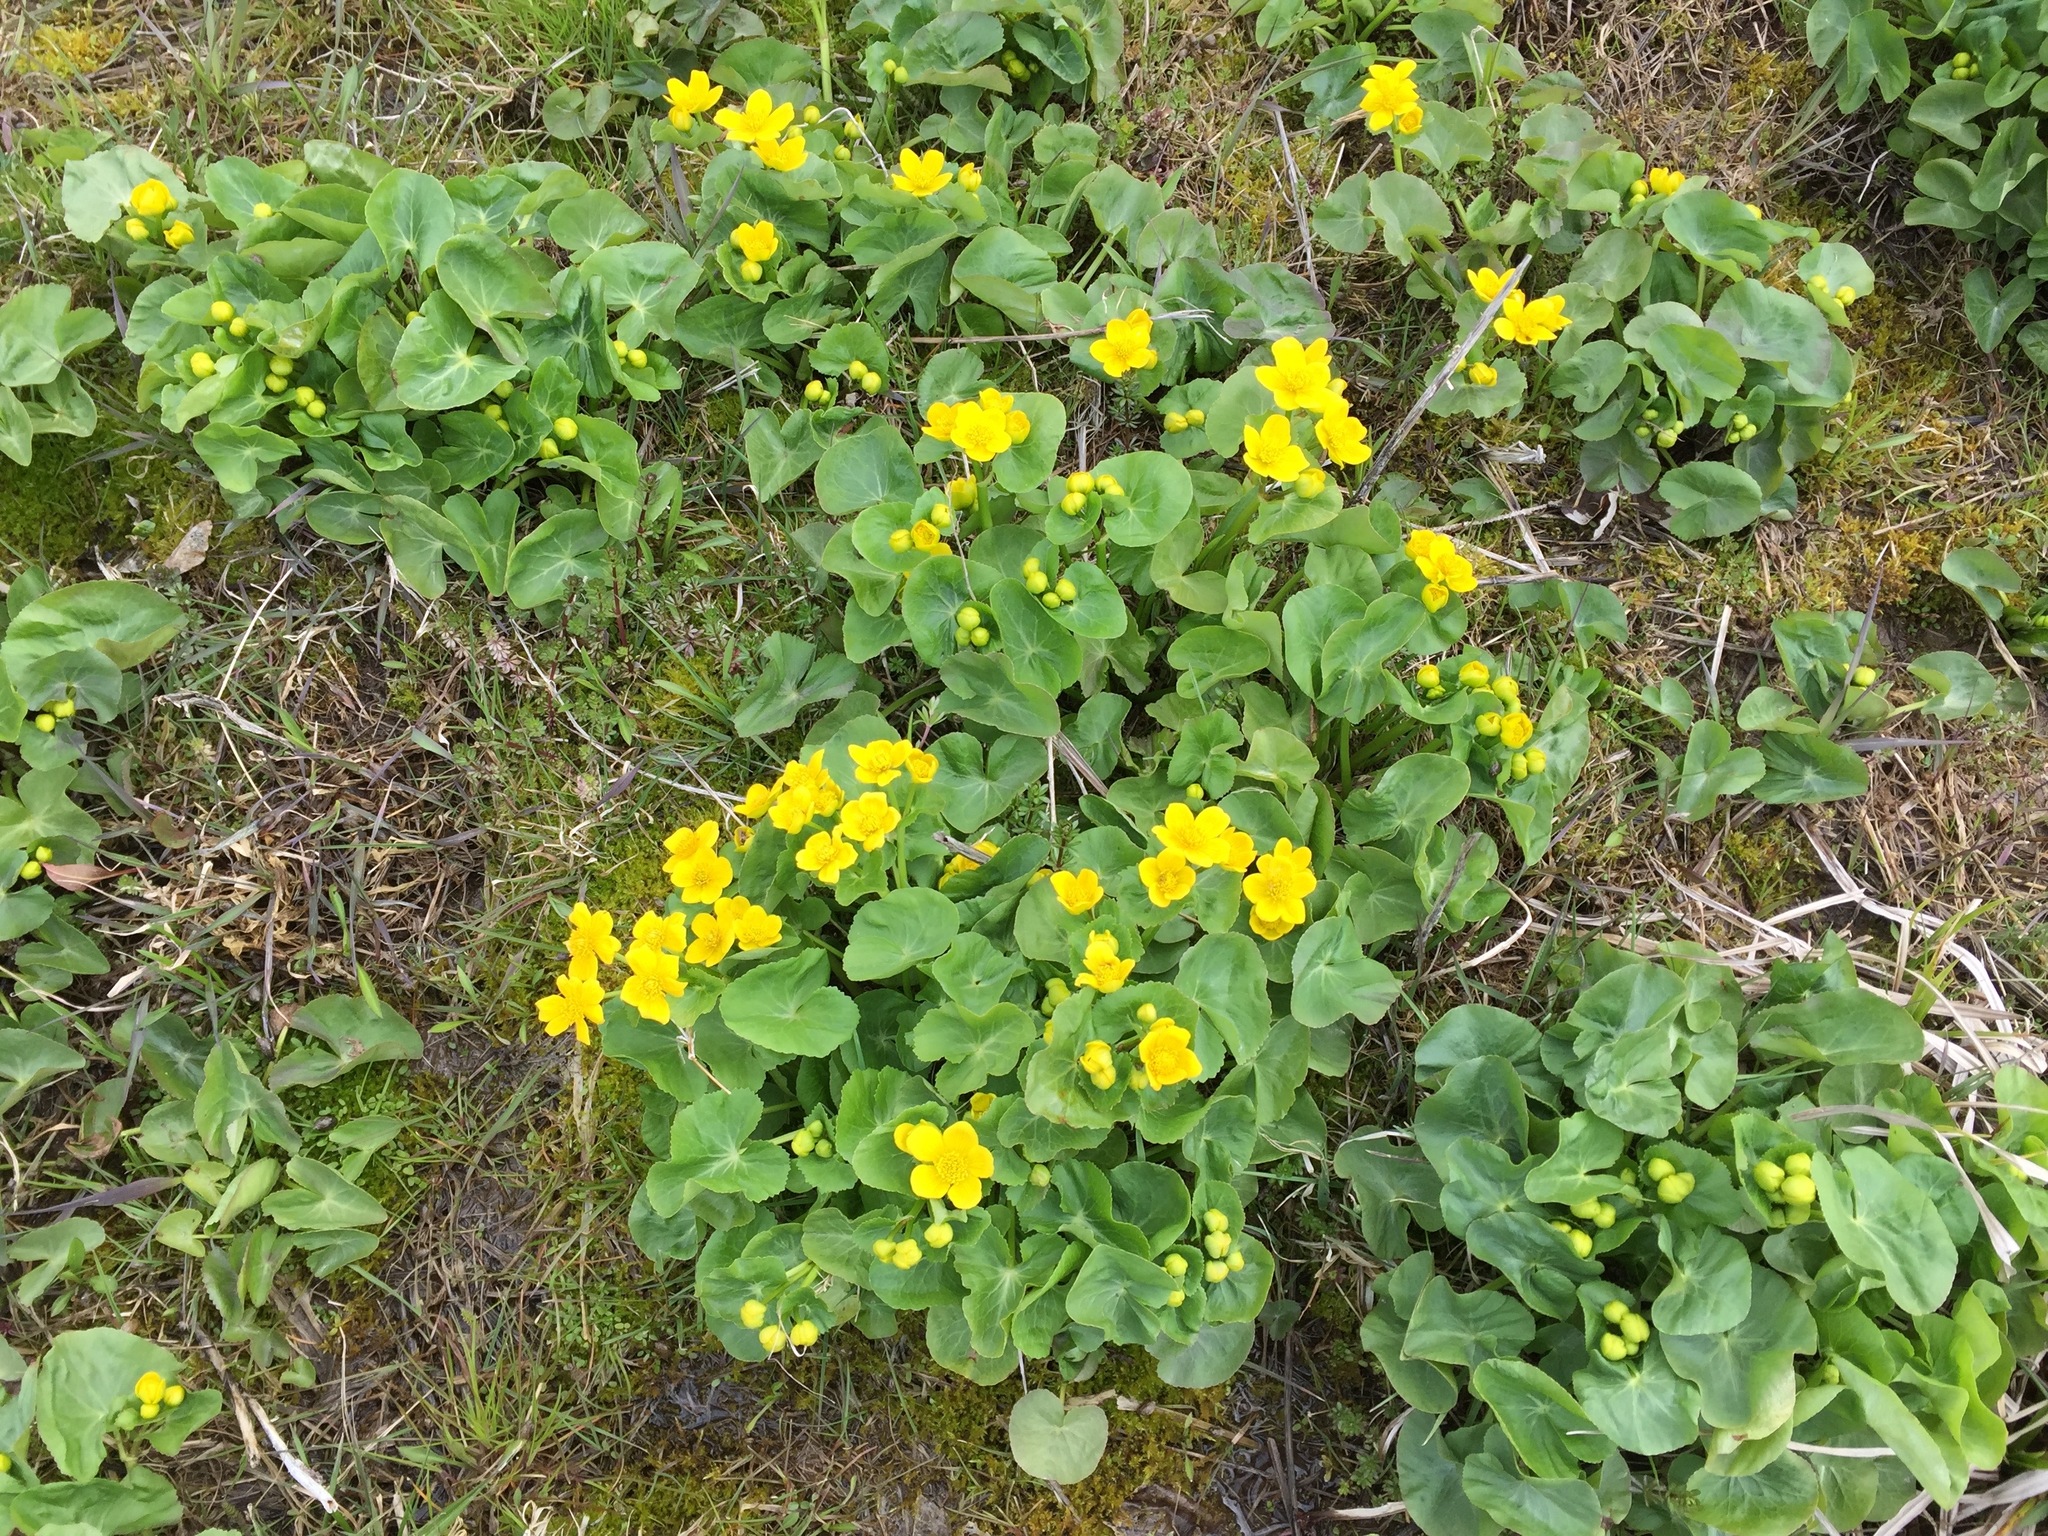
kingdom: Plantae
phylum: Tracheophyta
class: Magnoliopsida
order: Ranunculales
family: Ranunculaceae
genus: Caltha
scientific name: Caltha palustris
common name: Marsh marigold
